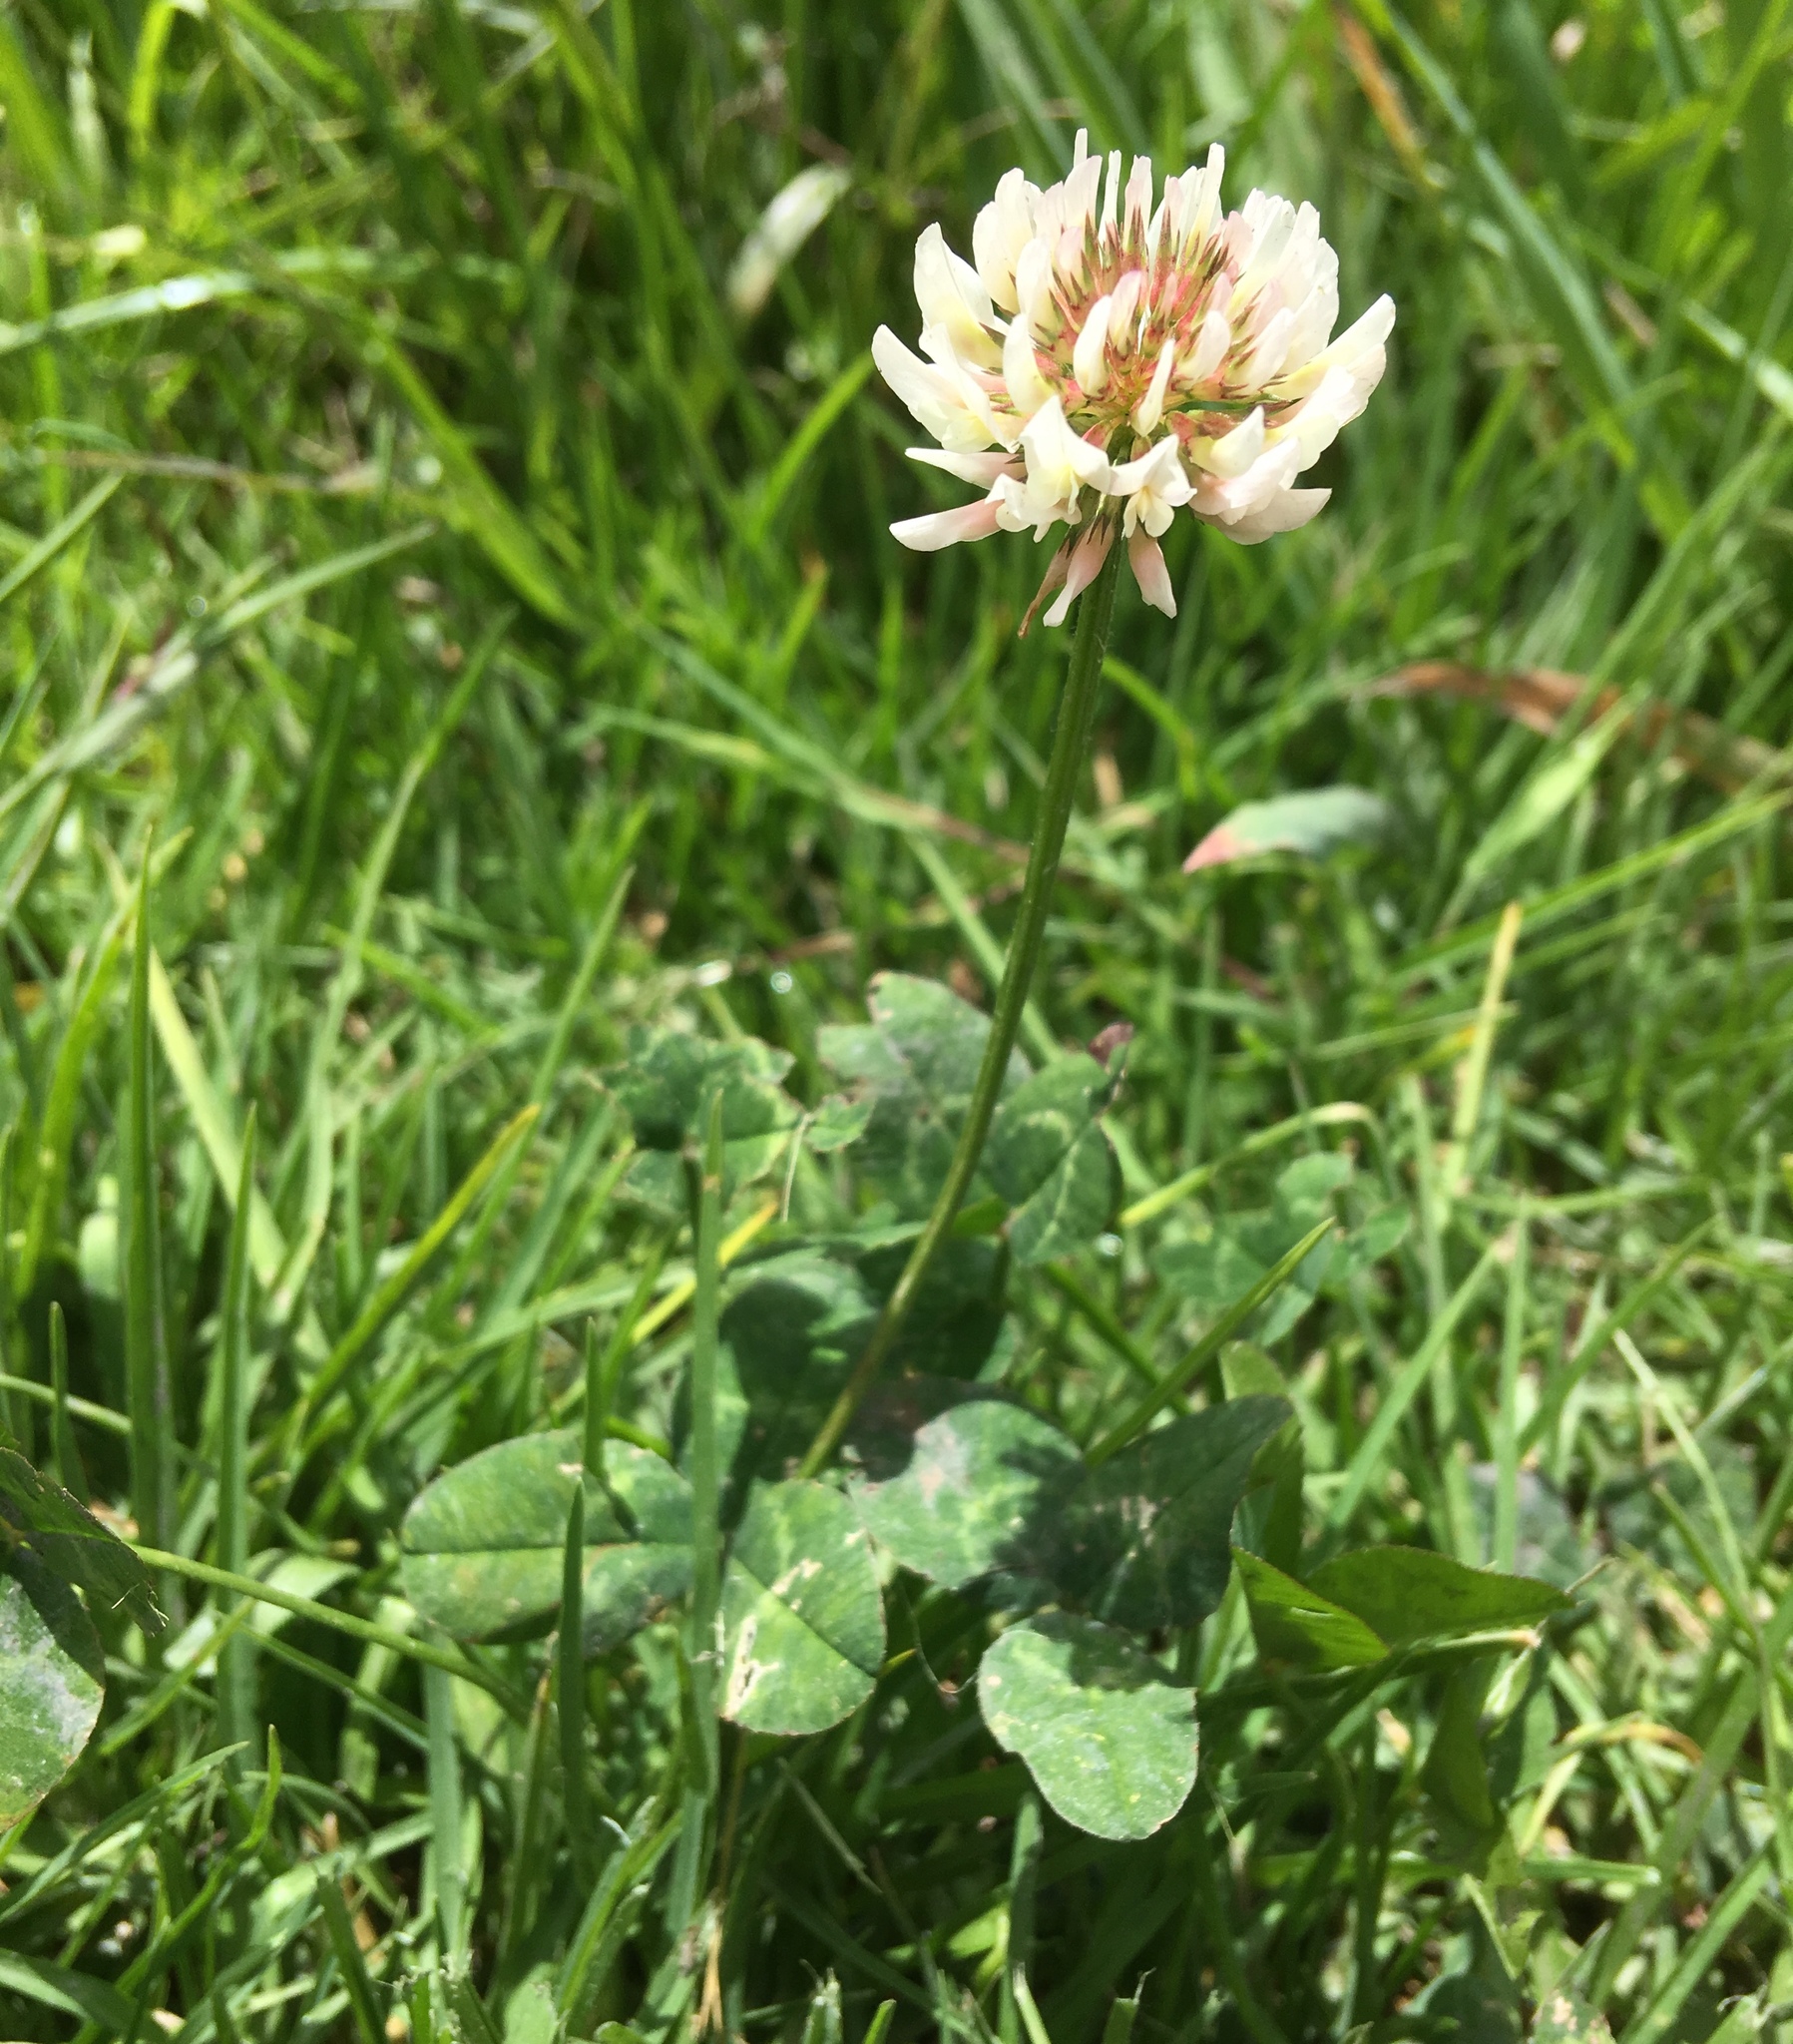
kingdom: Plantae
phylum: Tracheophyta
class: Magnoliopsida
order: Fabales
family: Fabaceae
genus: Trifolium
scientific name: Trifolium repens
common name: White clover
